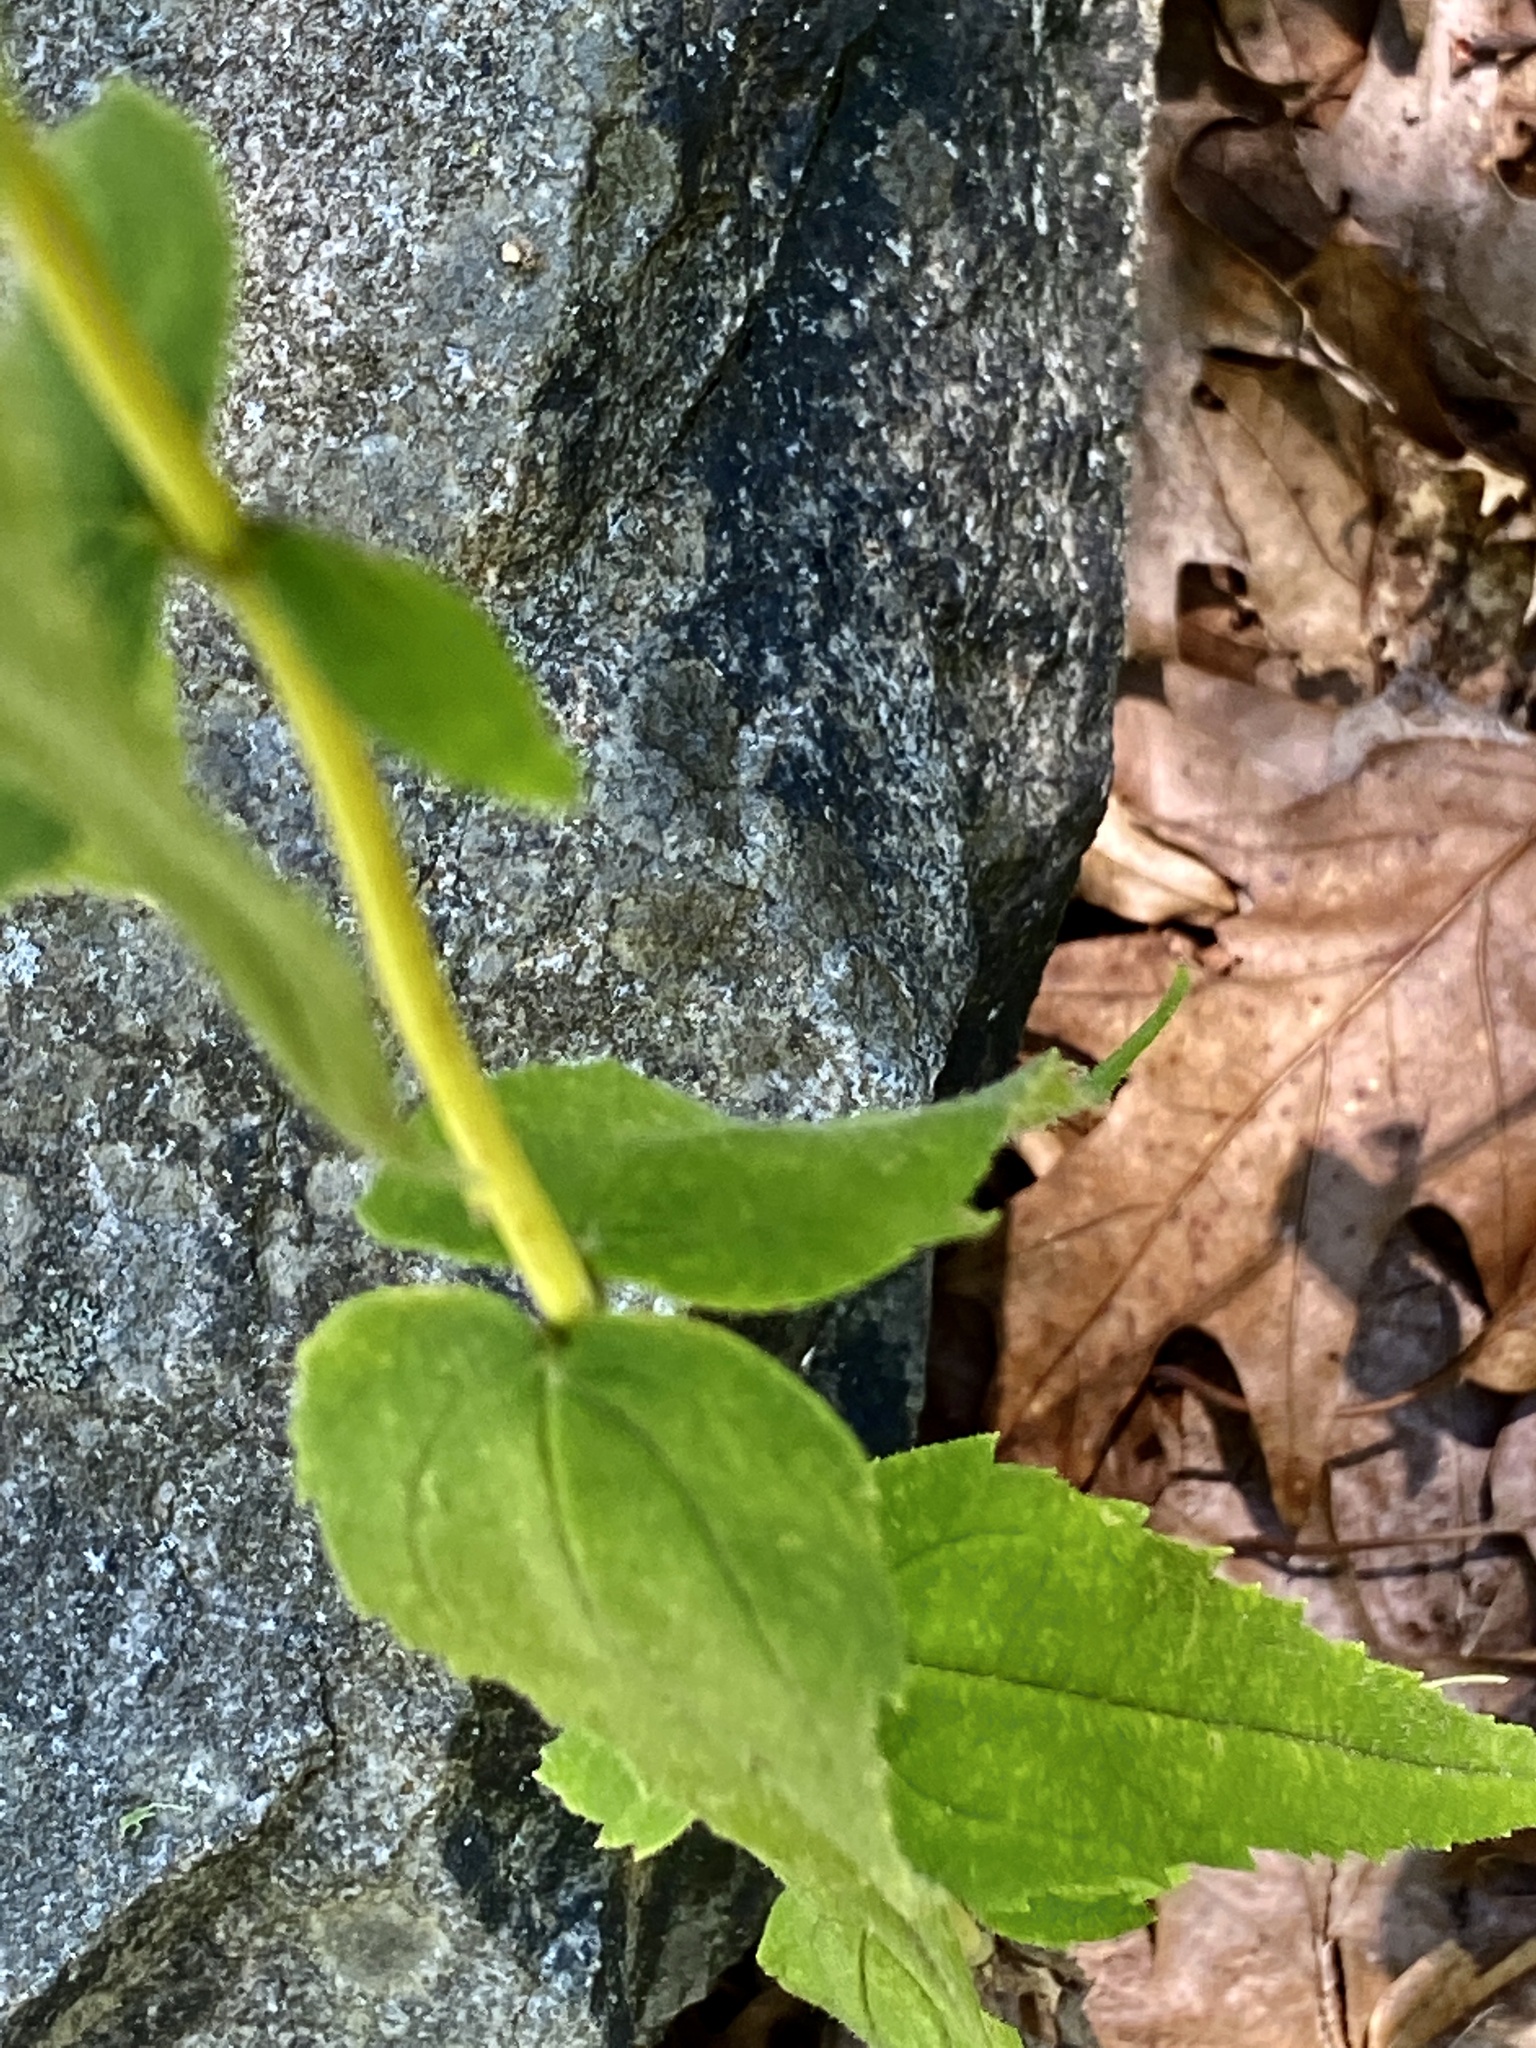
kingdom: Plantae
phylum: Tracheophyta
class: Magnoliopsida
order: Asterales
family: Asteraceae
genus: Helianthus
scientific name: Helianthus divaricatus
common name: Divergent sunflower
